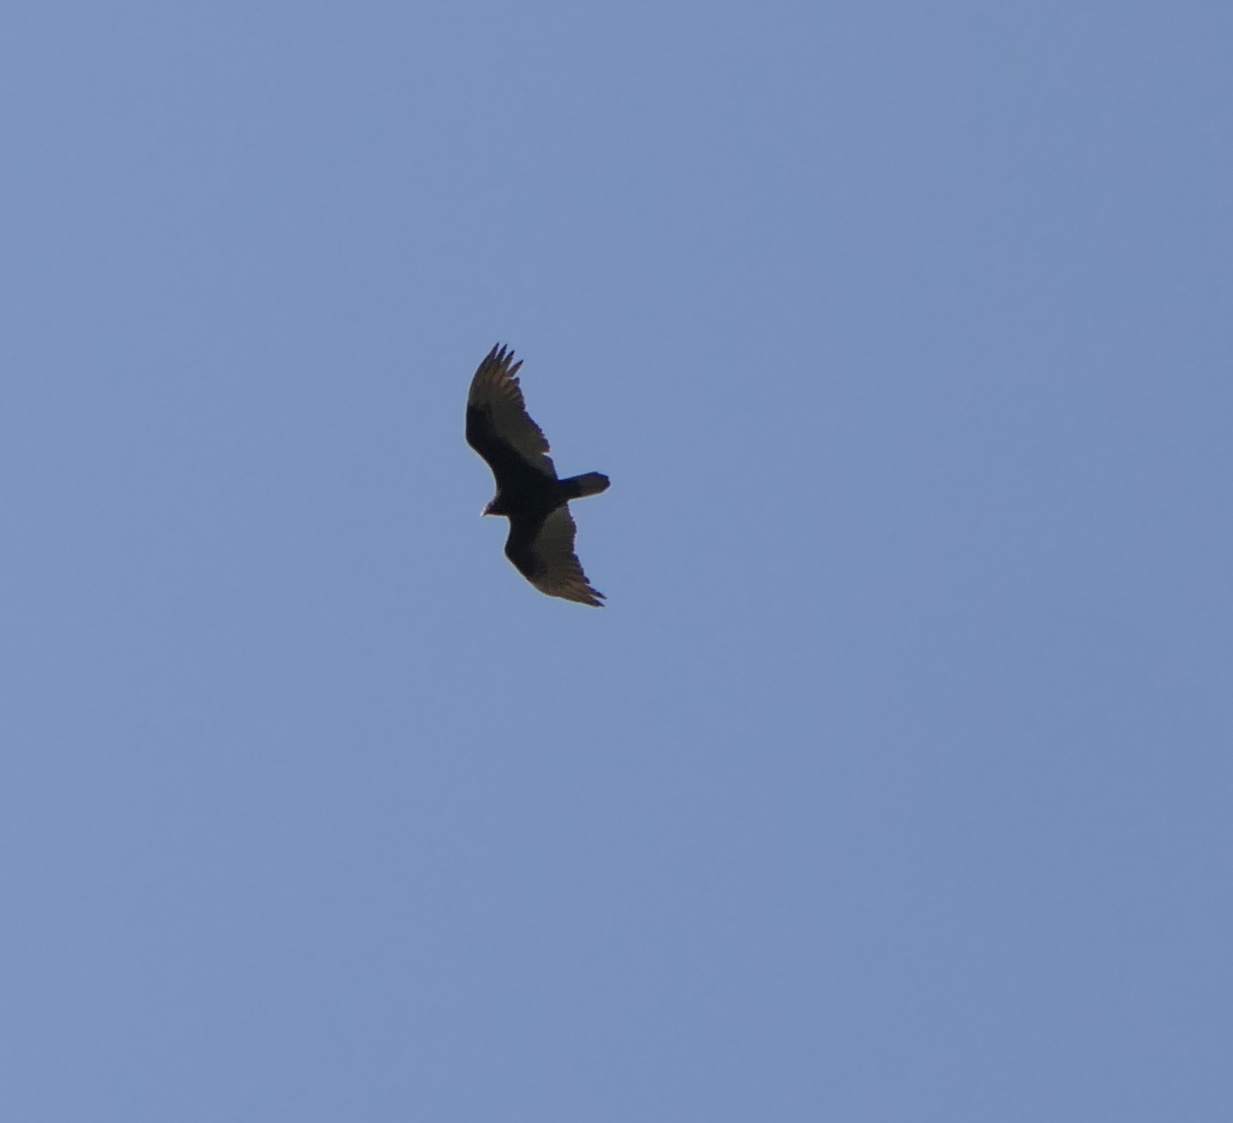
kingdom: Animalia
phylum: Chordata
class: Aves
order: Accipitriformes
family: Cathartidae
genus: Cathartes
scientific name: Cathartes aura
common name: Turkey vulture
